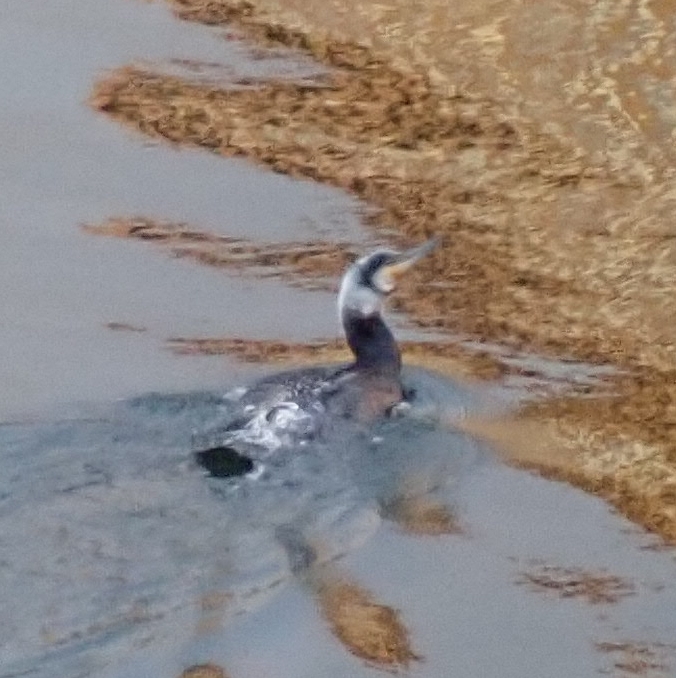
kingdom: Animalia
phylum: Chordata
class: Aves
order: Suliformes
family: Phalacrocoracidae
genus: Phalacrocorax
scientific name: Phalacrocorax carbo
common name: Great cormorant
